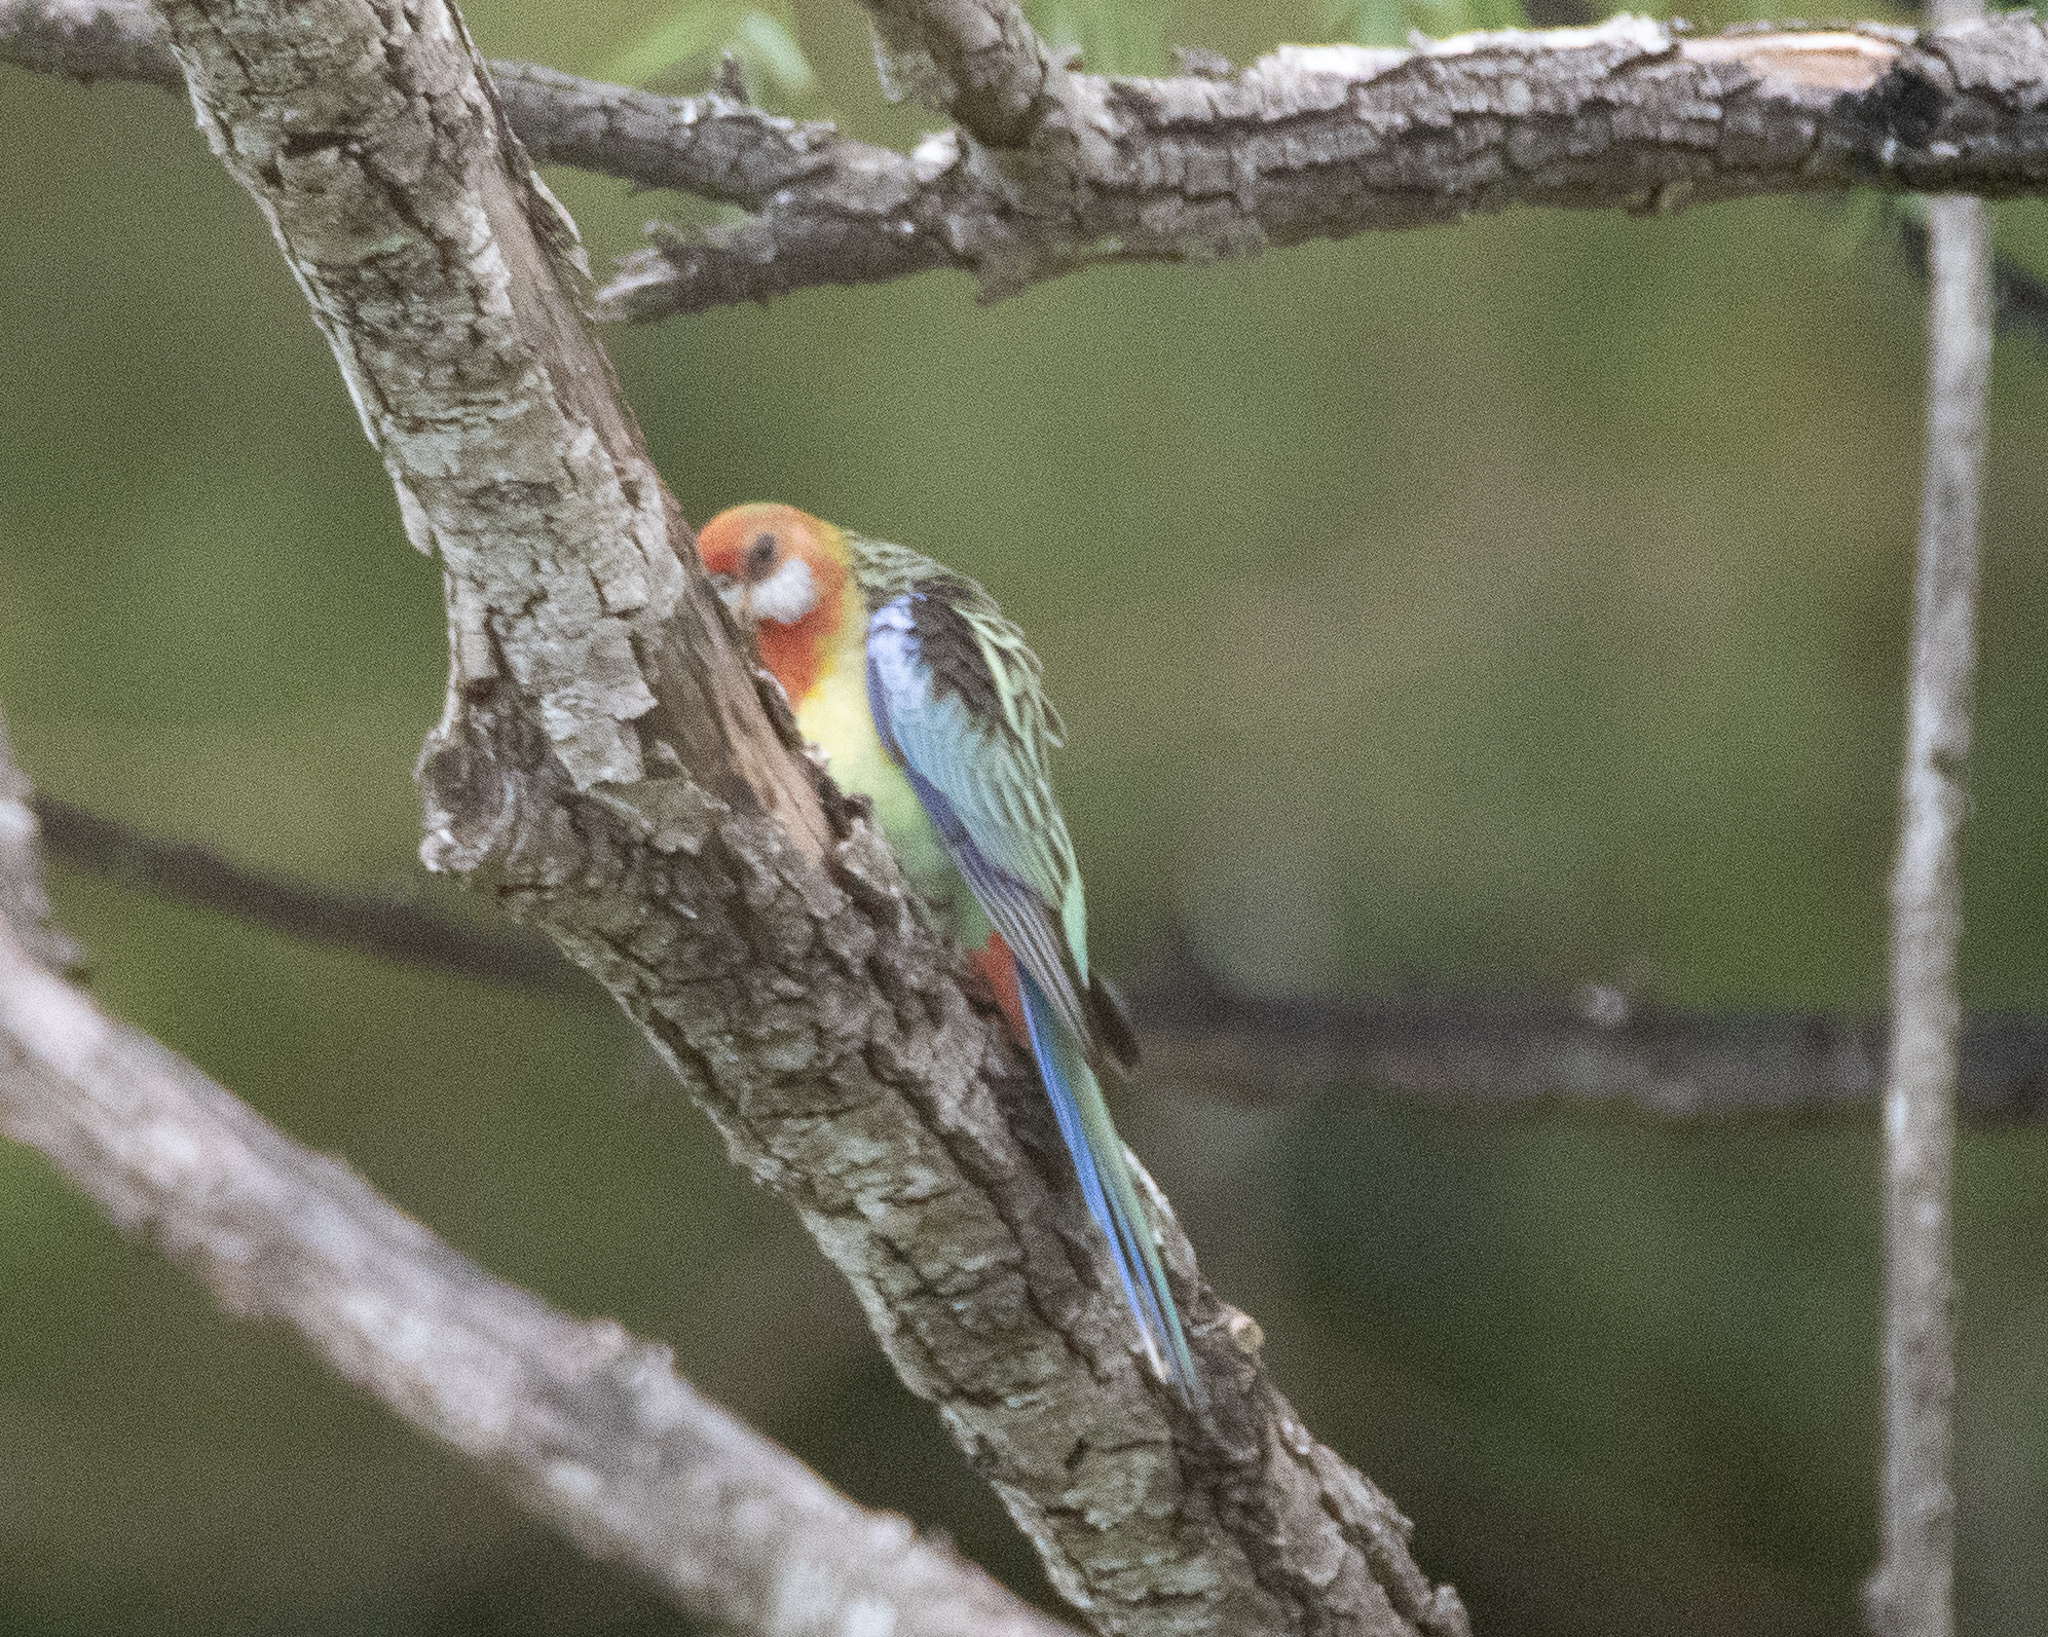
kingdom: Animalia
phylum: Chordata
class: Aves
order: Psittaciformes
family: Psittacidae
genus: Platycercus
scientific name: Platycercus eximius
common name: Eastern rosella
